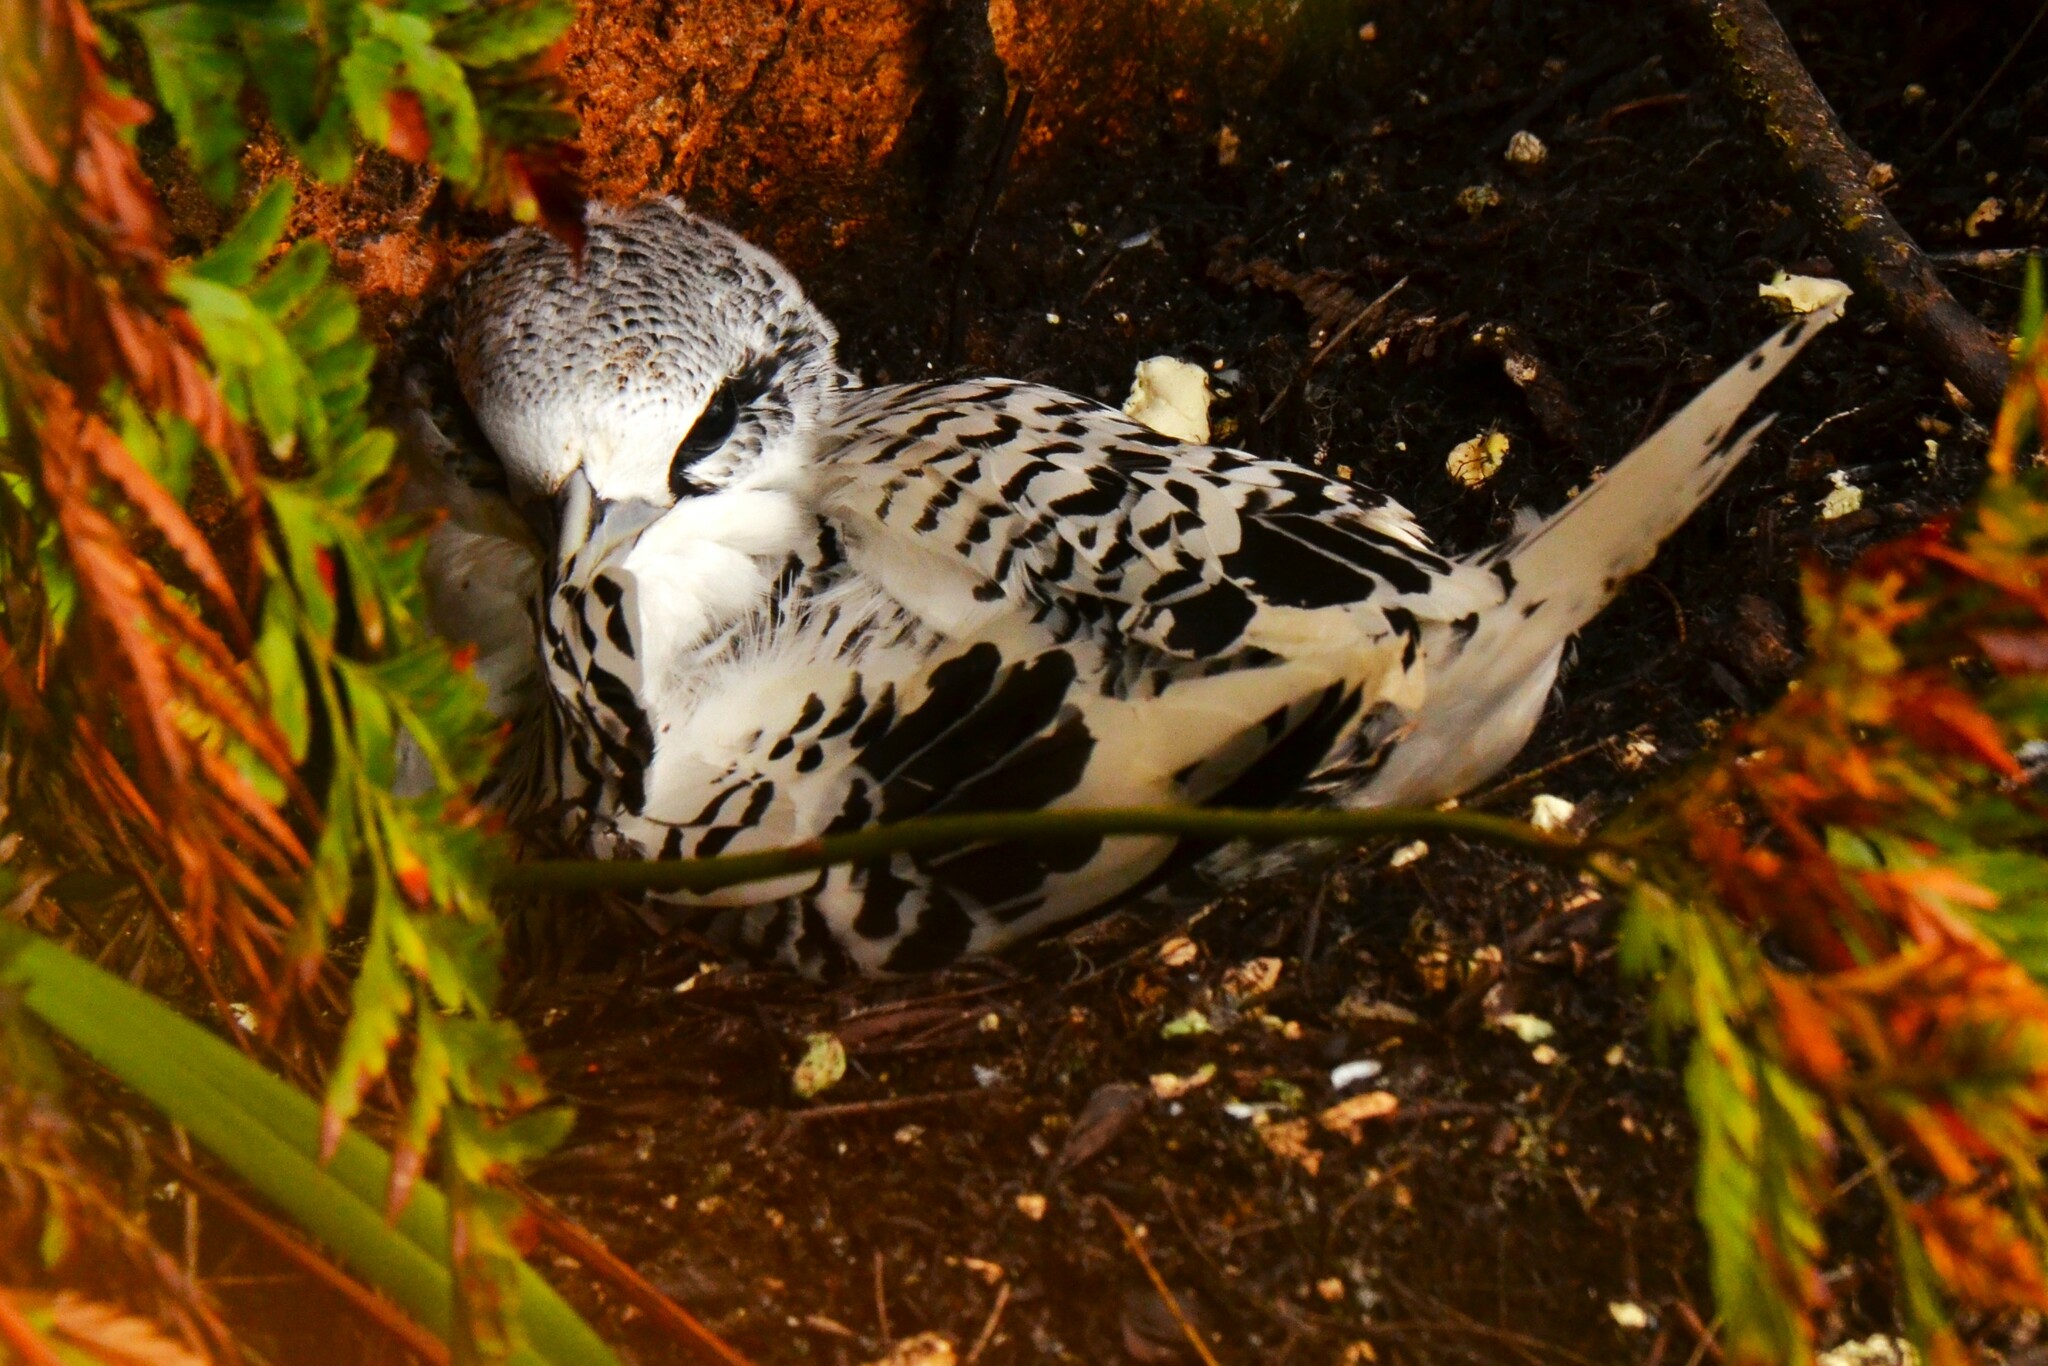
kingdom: Animalia
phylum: Chordata
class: Aves
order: Phaethontiformes
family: Phaethontidae
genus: Phaethon
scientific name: Phaethon lepturus
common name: White-tailed tropicbird
